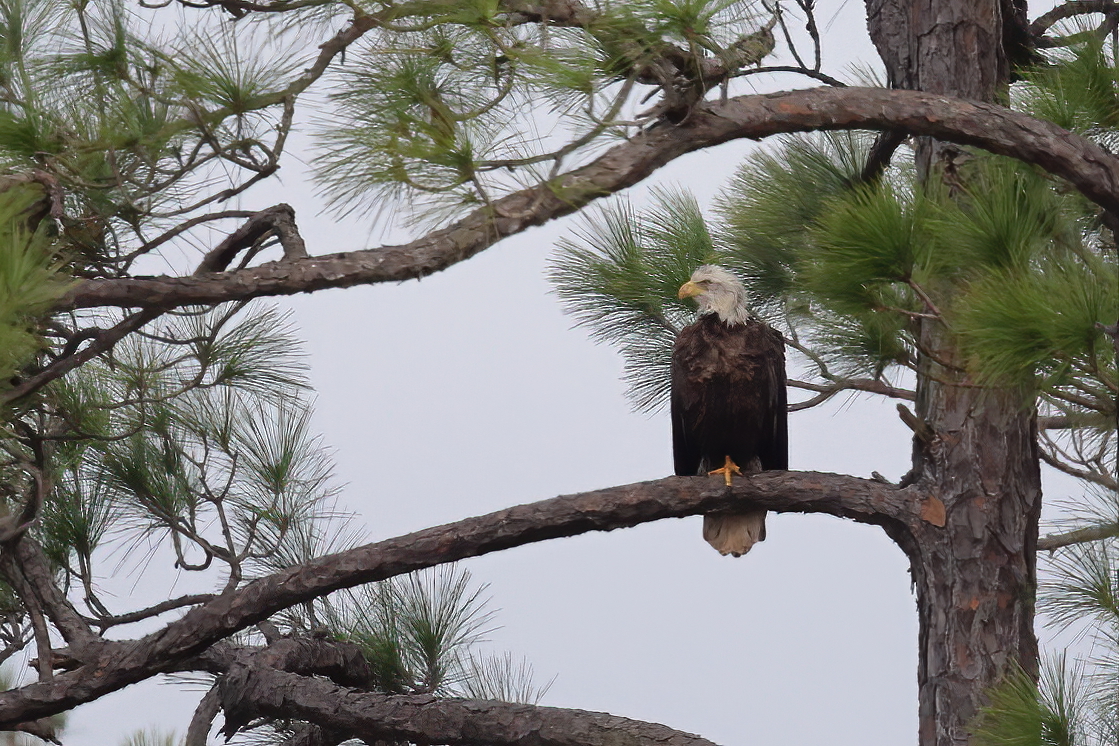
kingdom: Animalia
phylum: Chordata
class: Aves
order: Accipitriformes
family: Accipitridae
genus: Haliaeetus
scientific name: Haliaeetus leucocephalus
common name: Bald eagle
